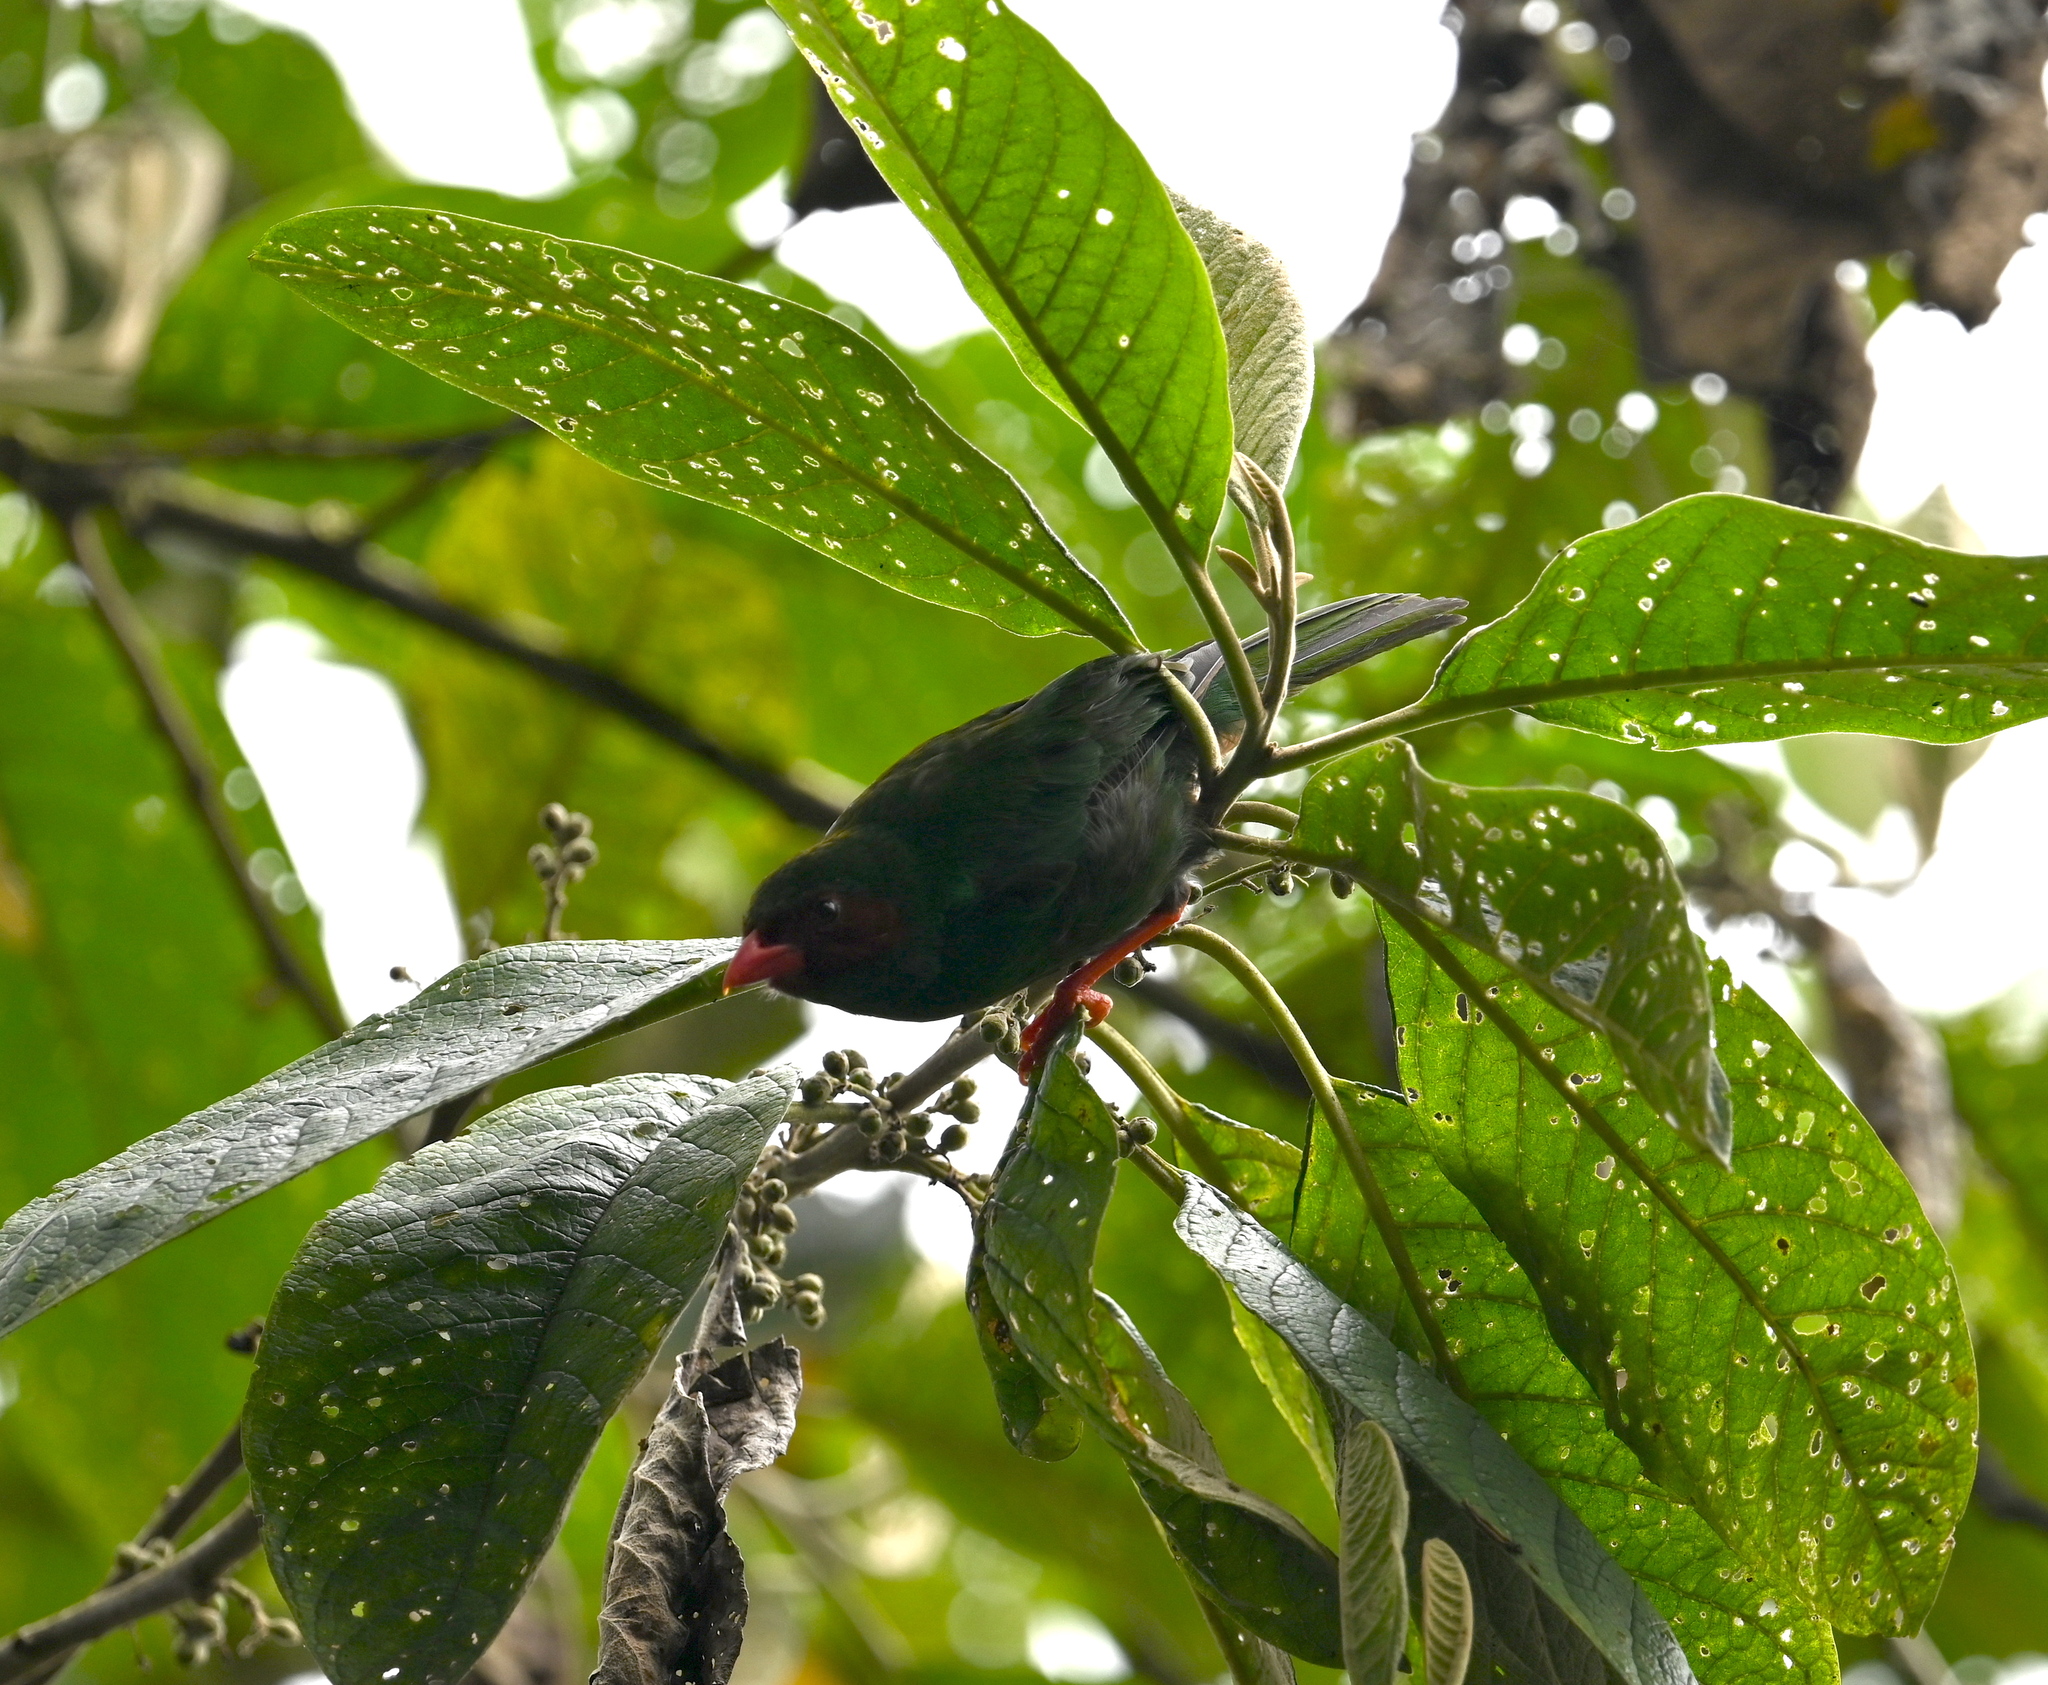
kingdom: Animalia
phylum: Chordata
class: Aves
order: Passeriformes
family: Thraupidae
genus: Chlorornis
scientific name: Chlorornis riefferii
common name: Grass-green tanager
